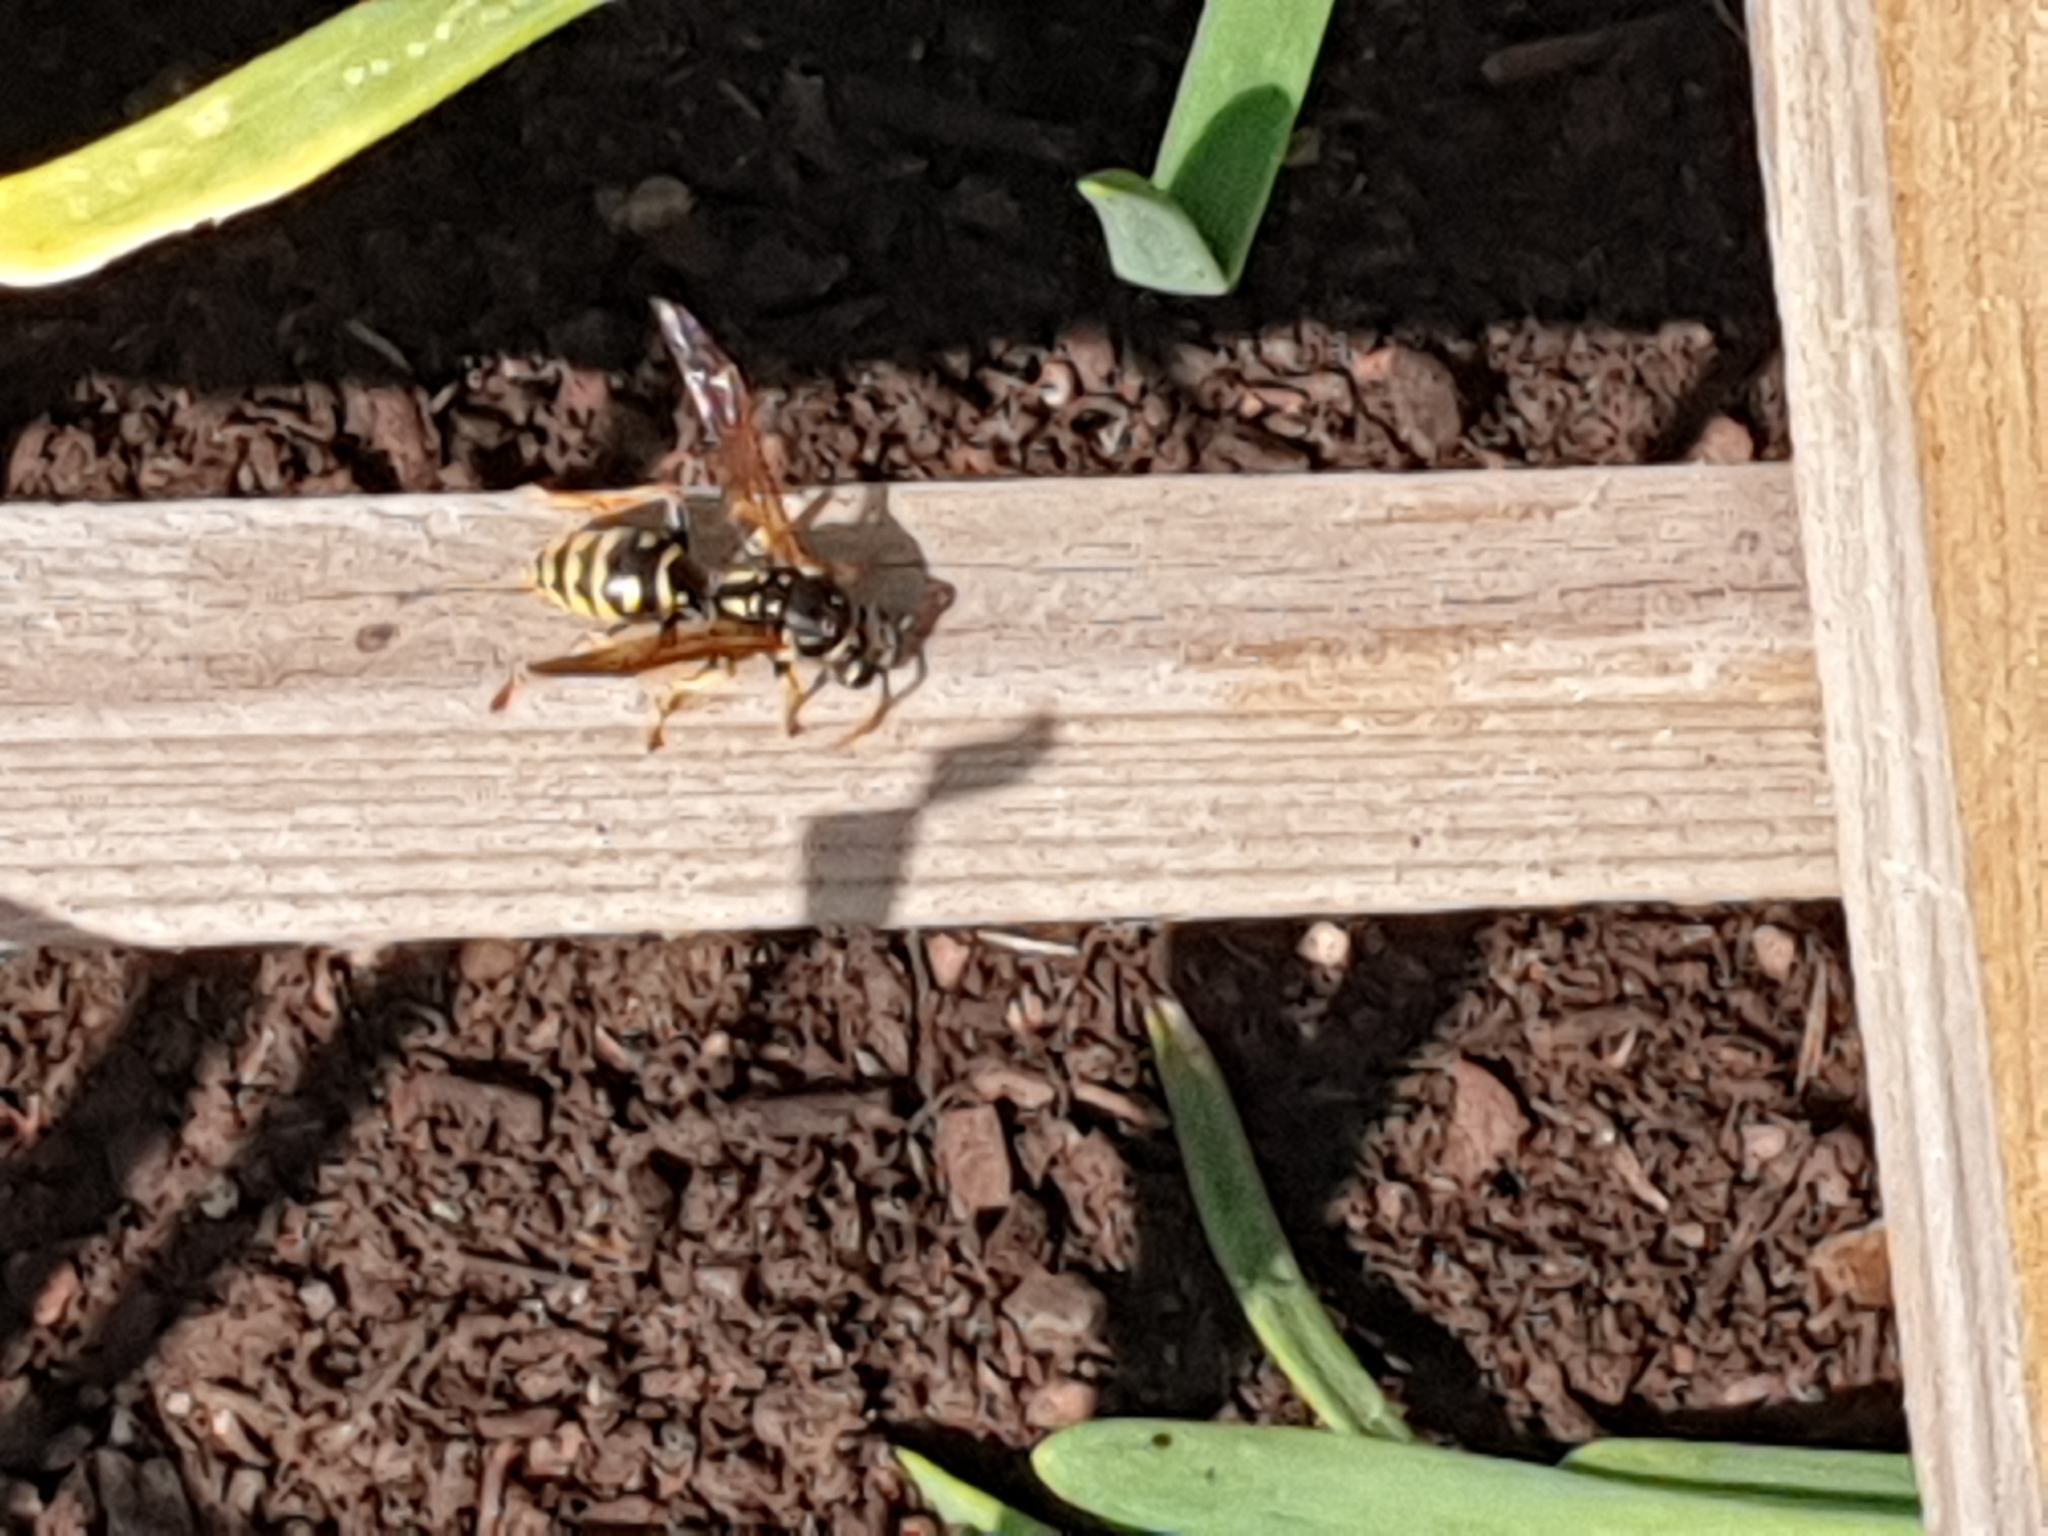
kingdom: Animalia
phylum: Arthropoda
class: Insecta
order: Hymenoptera
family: Eumenidae
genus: Polistes
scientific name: Polistes dominula
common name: Paper wasp
